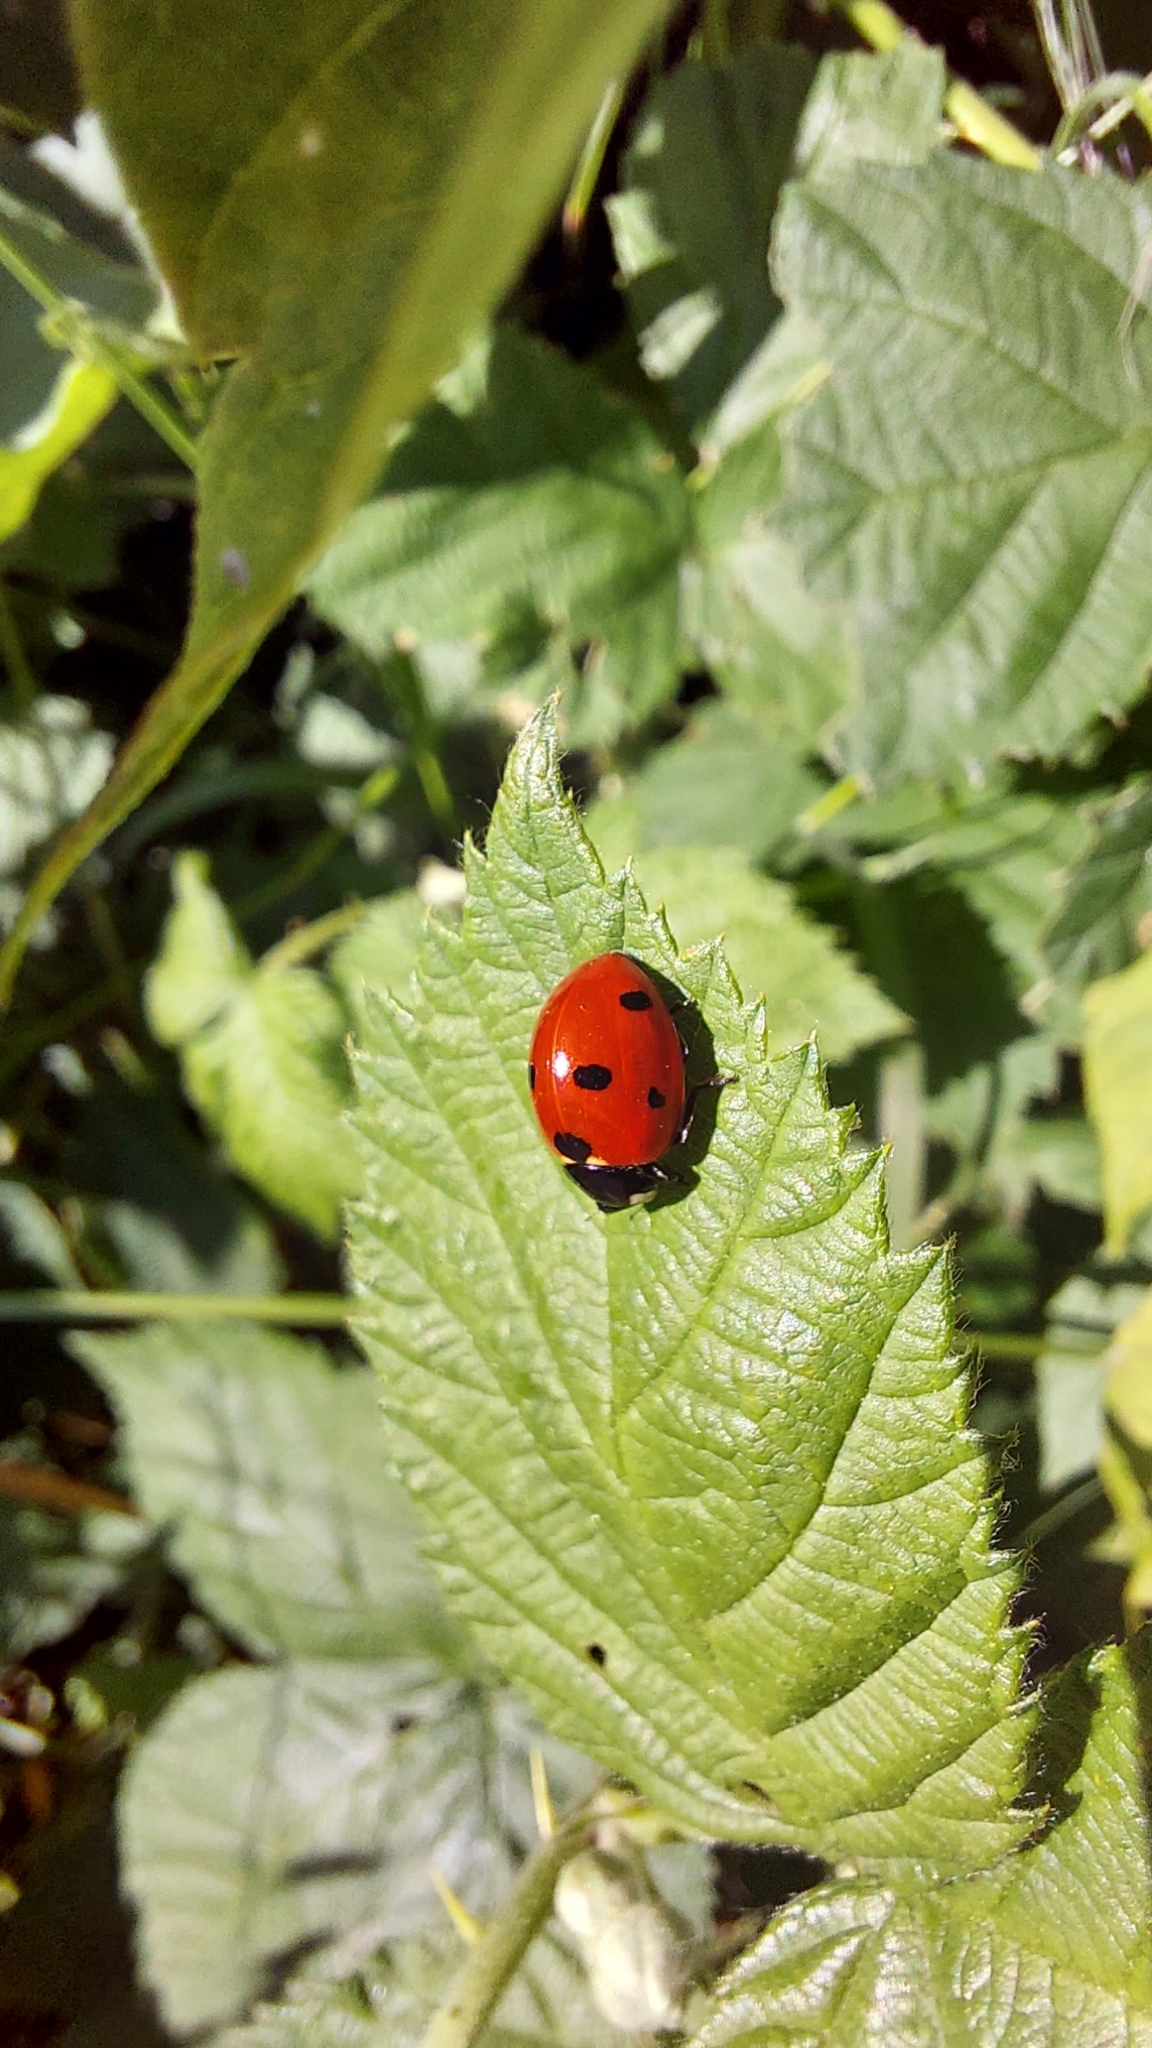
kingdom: Animalia
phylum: Arthropoda
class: Insecta
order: Coleoptera
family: Coccinellidae
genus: Coccinella
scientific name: Coccinella septempunctata
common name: Sevenspotted lady beetle
